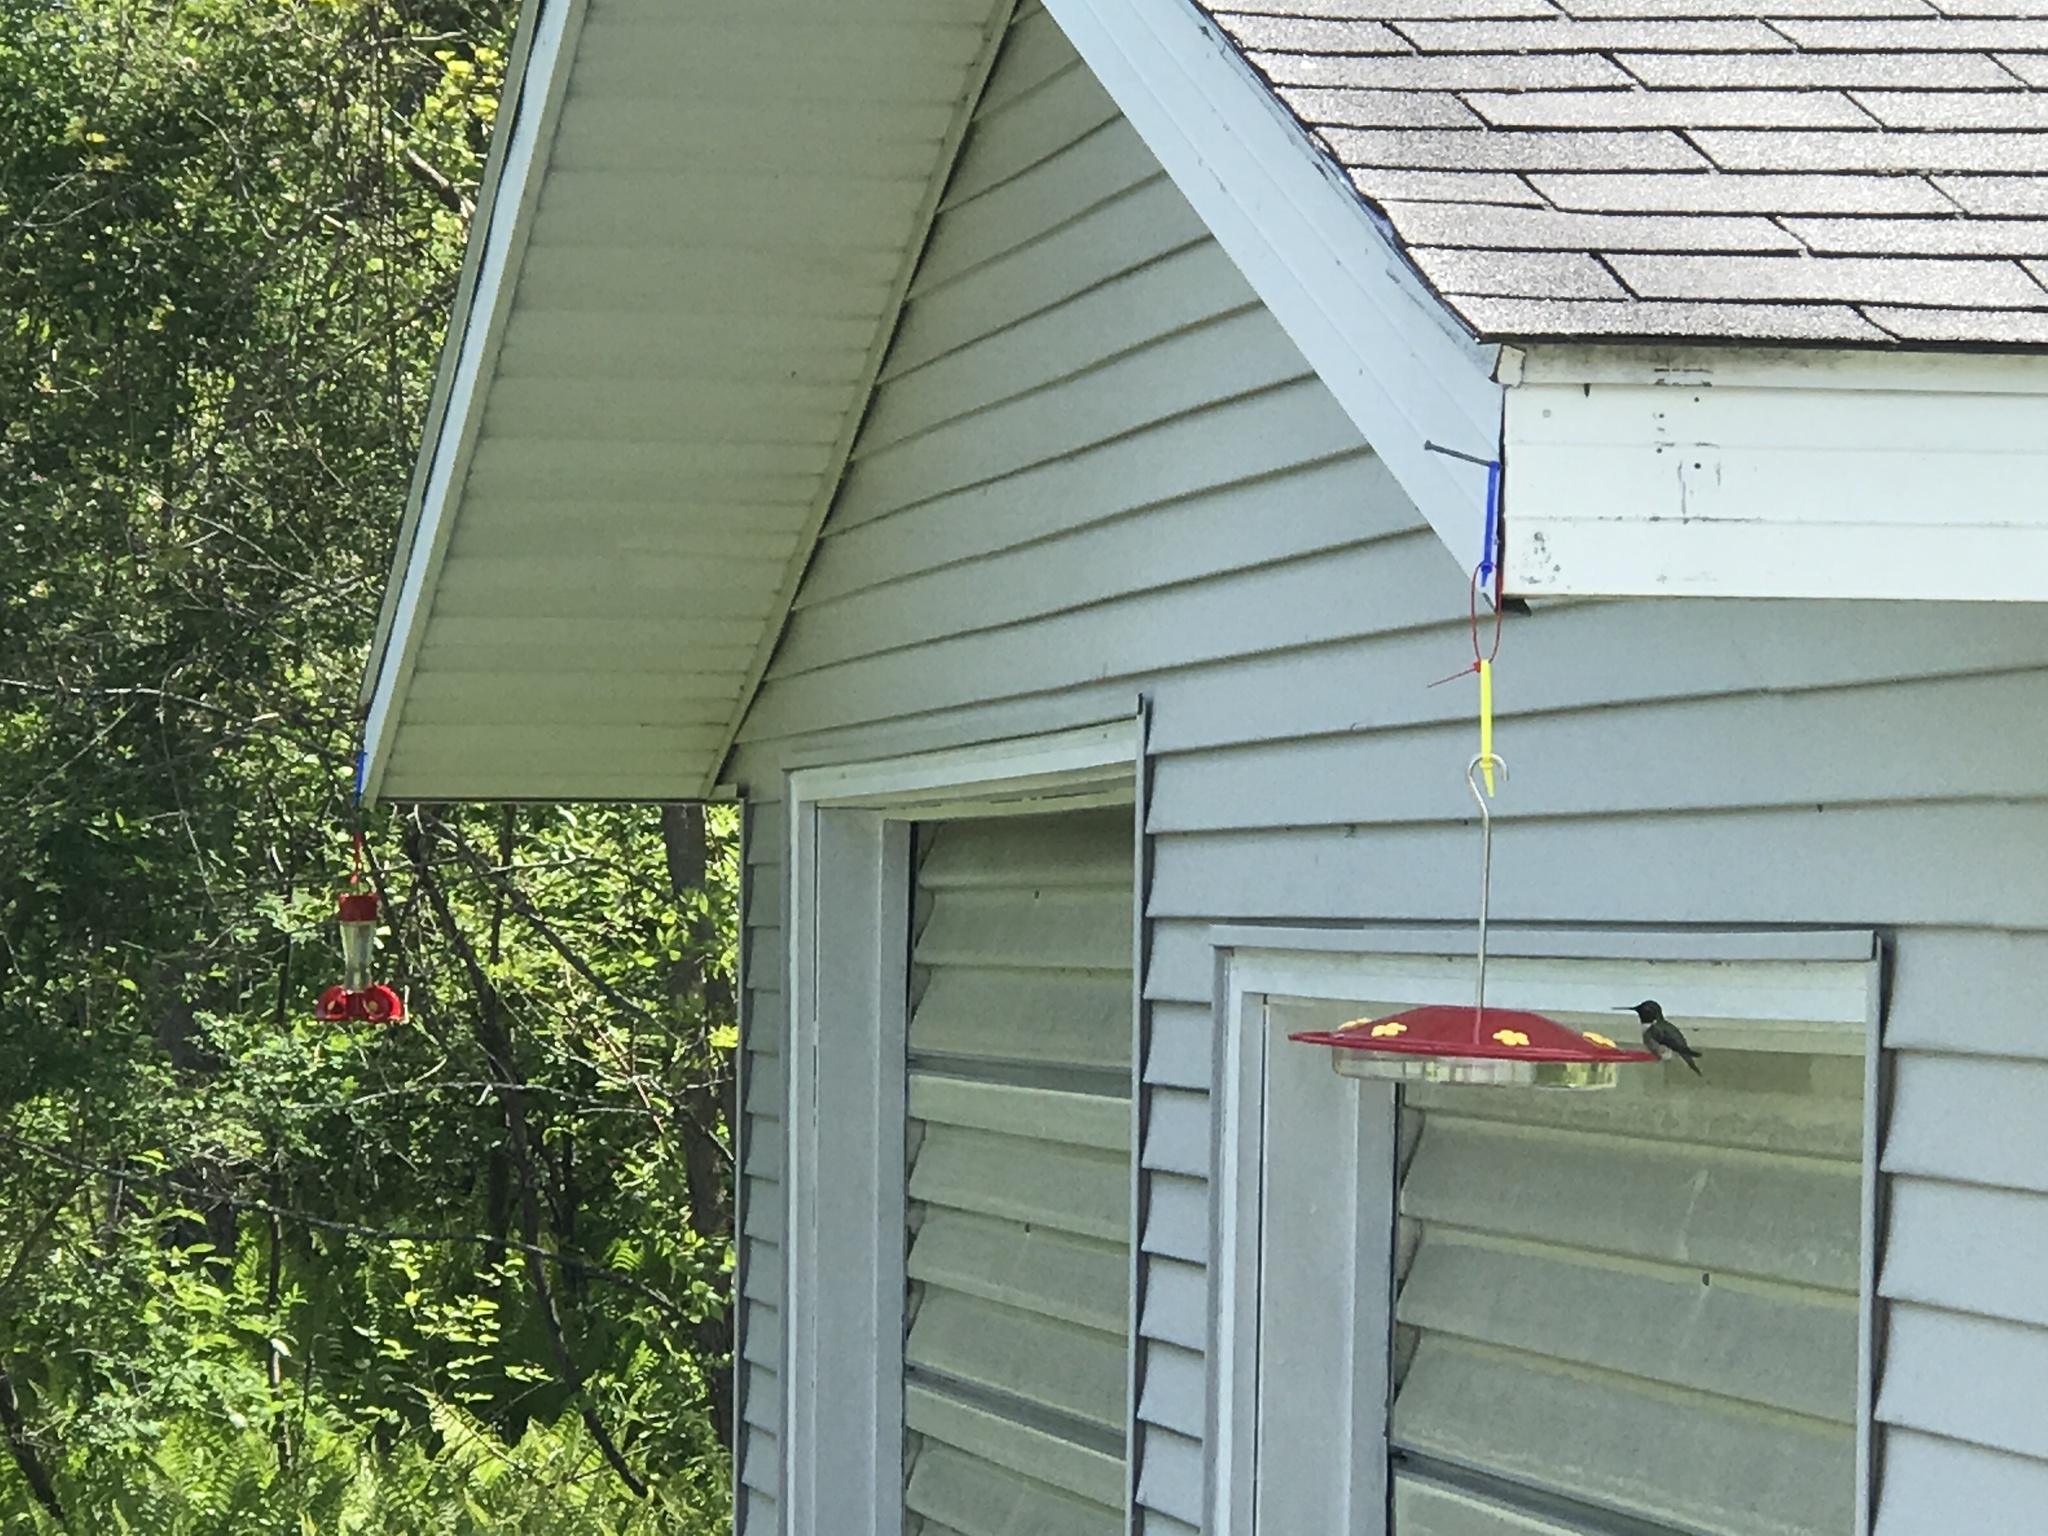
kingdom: Animalia
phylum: Chordata
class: Aves
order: Apodiformes
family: Trochilidae
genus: Archilochus
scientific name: Archilochus colubris
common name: Ruby-throated hummingbird
